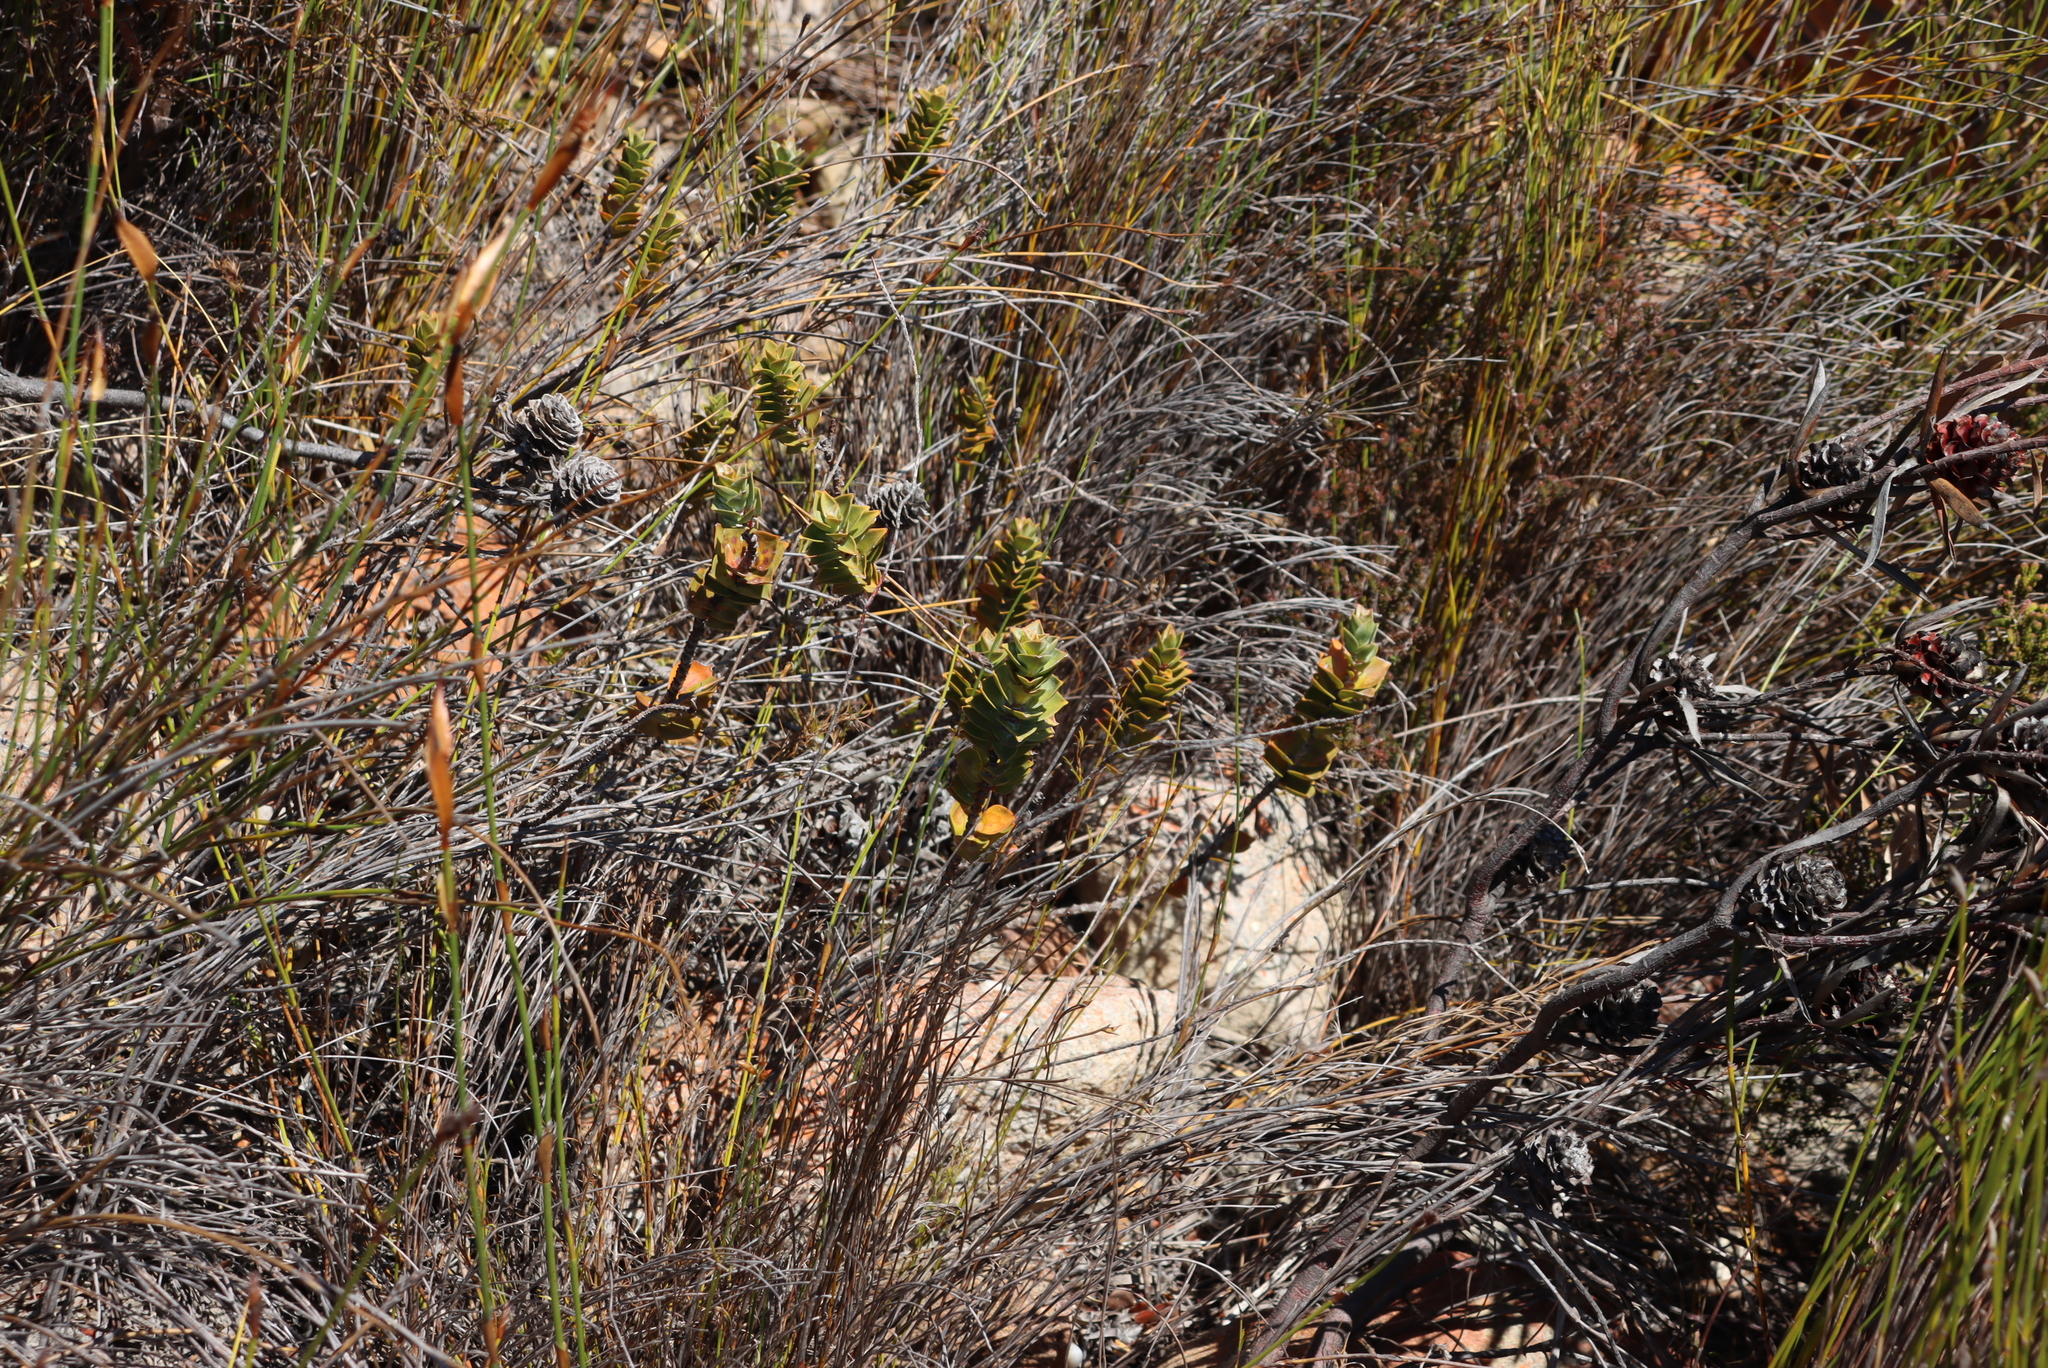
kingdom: Plantae
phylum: Tracheophyta
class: Magnoliopsida
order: Myrtales
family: Penaeaceae
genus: Saltera
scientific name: Saltera sarcocolla
